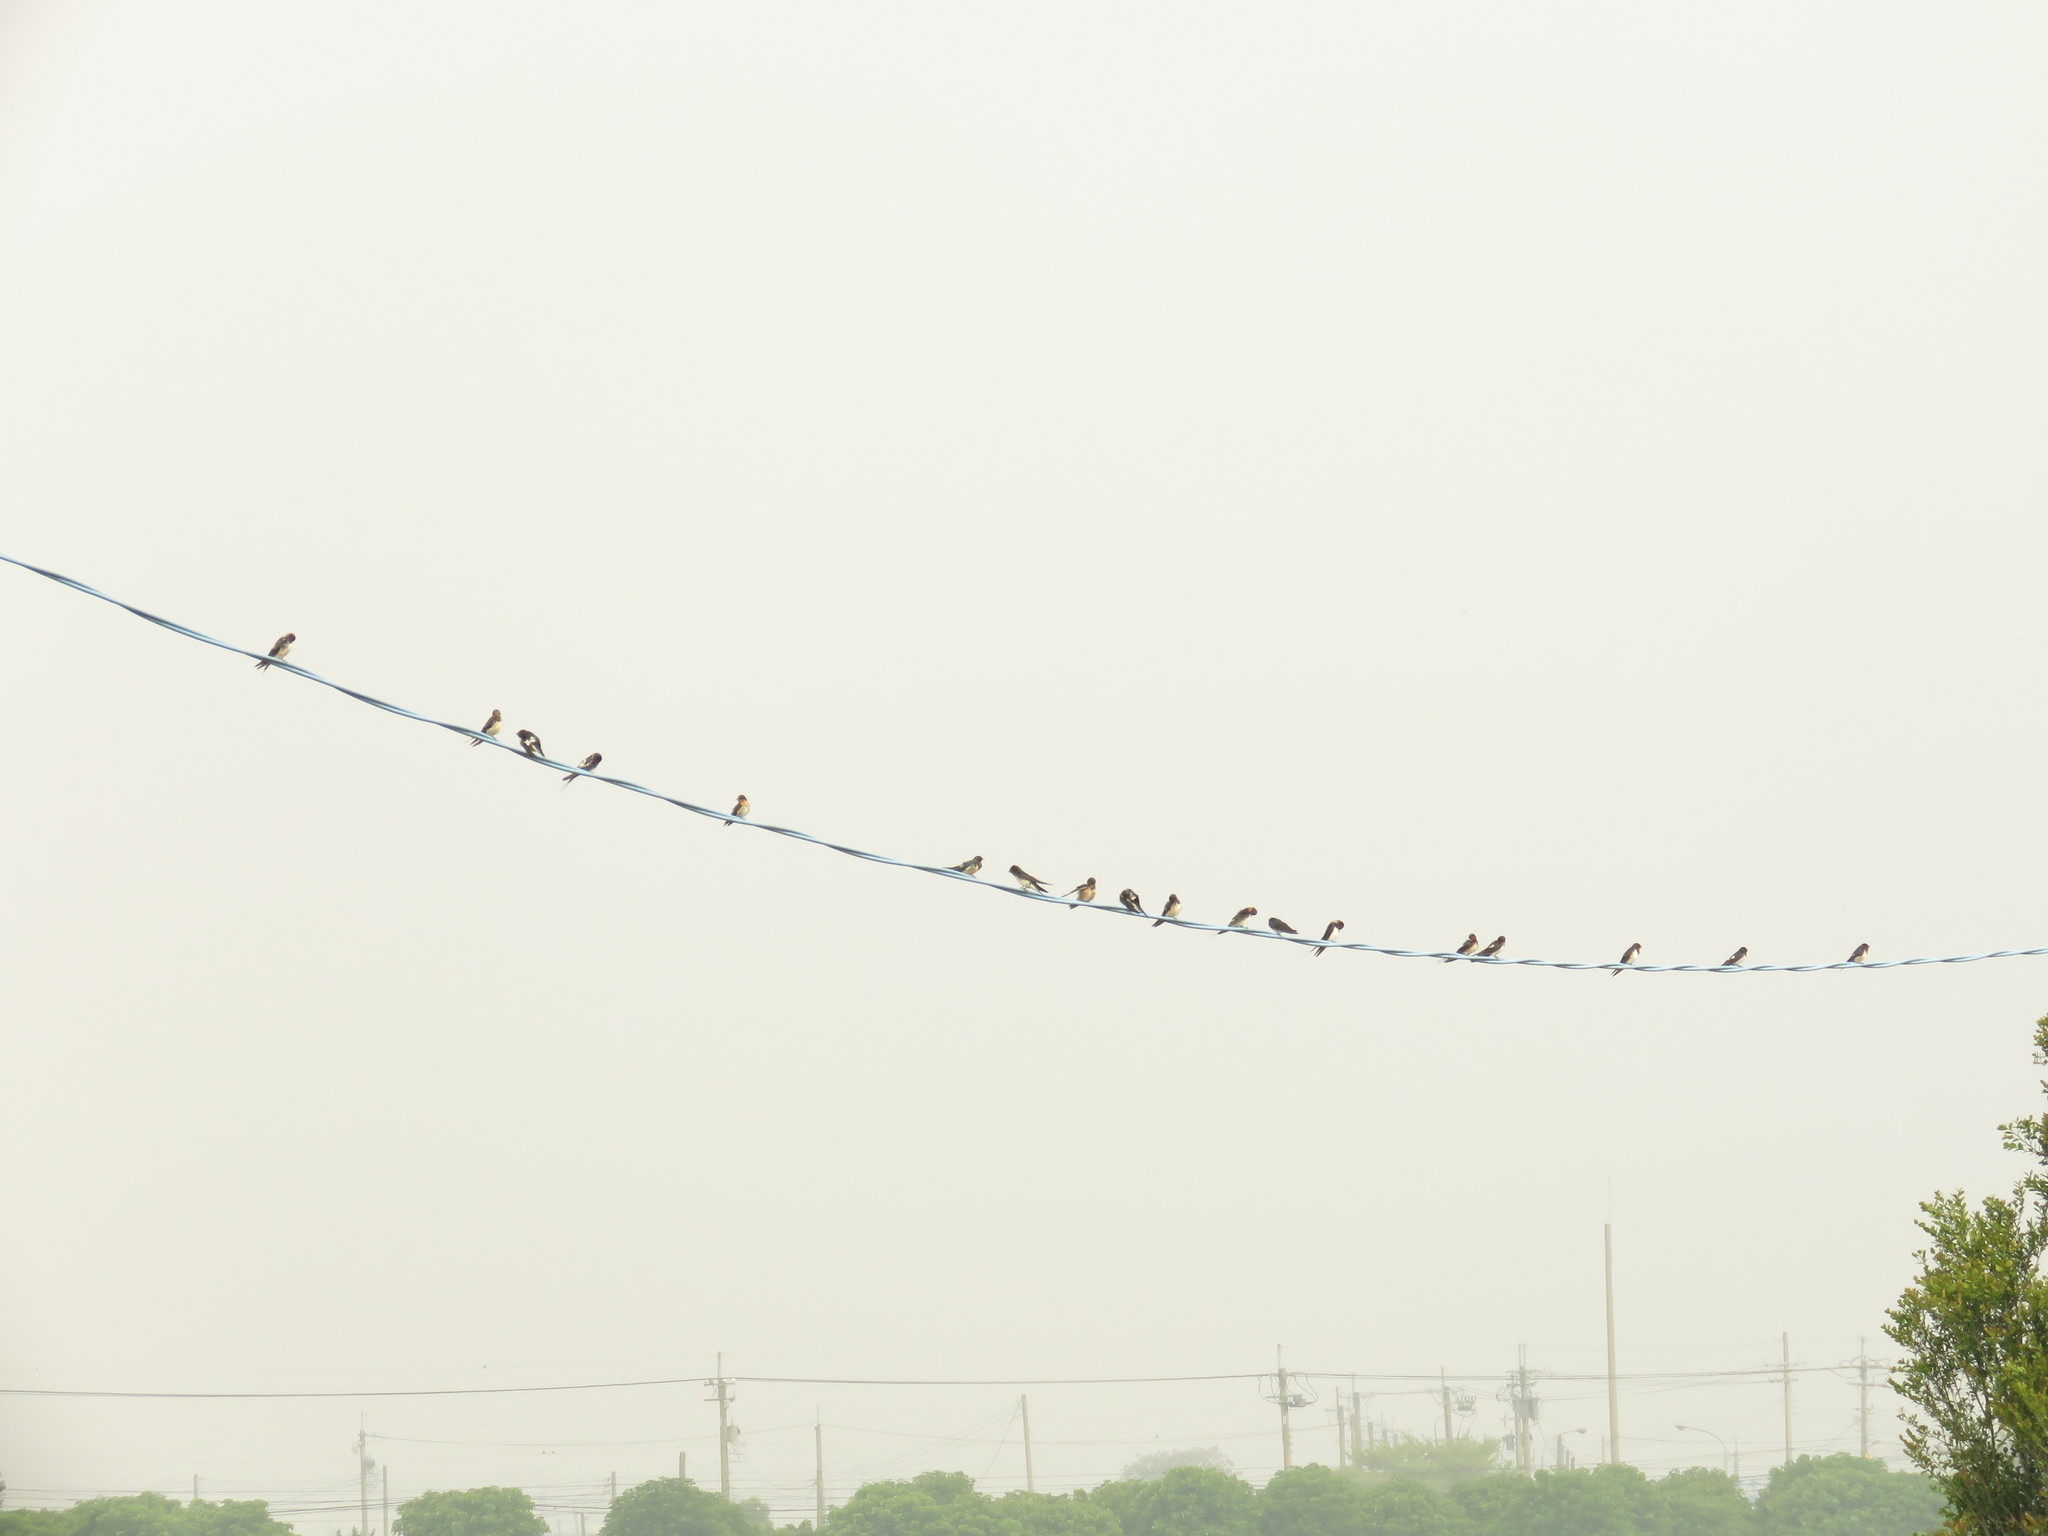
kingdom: Animalia
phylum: Chordata
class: Aves
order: Passeriformes
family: Hirundinidae
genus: Hirundo
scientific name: Hirundo rustica
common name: Barn swallow
